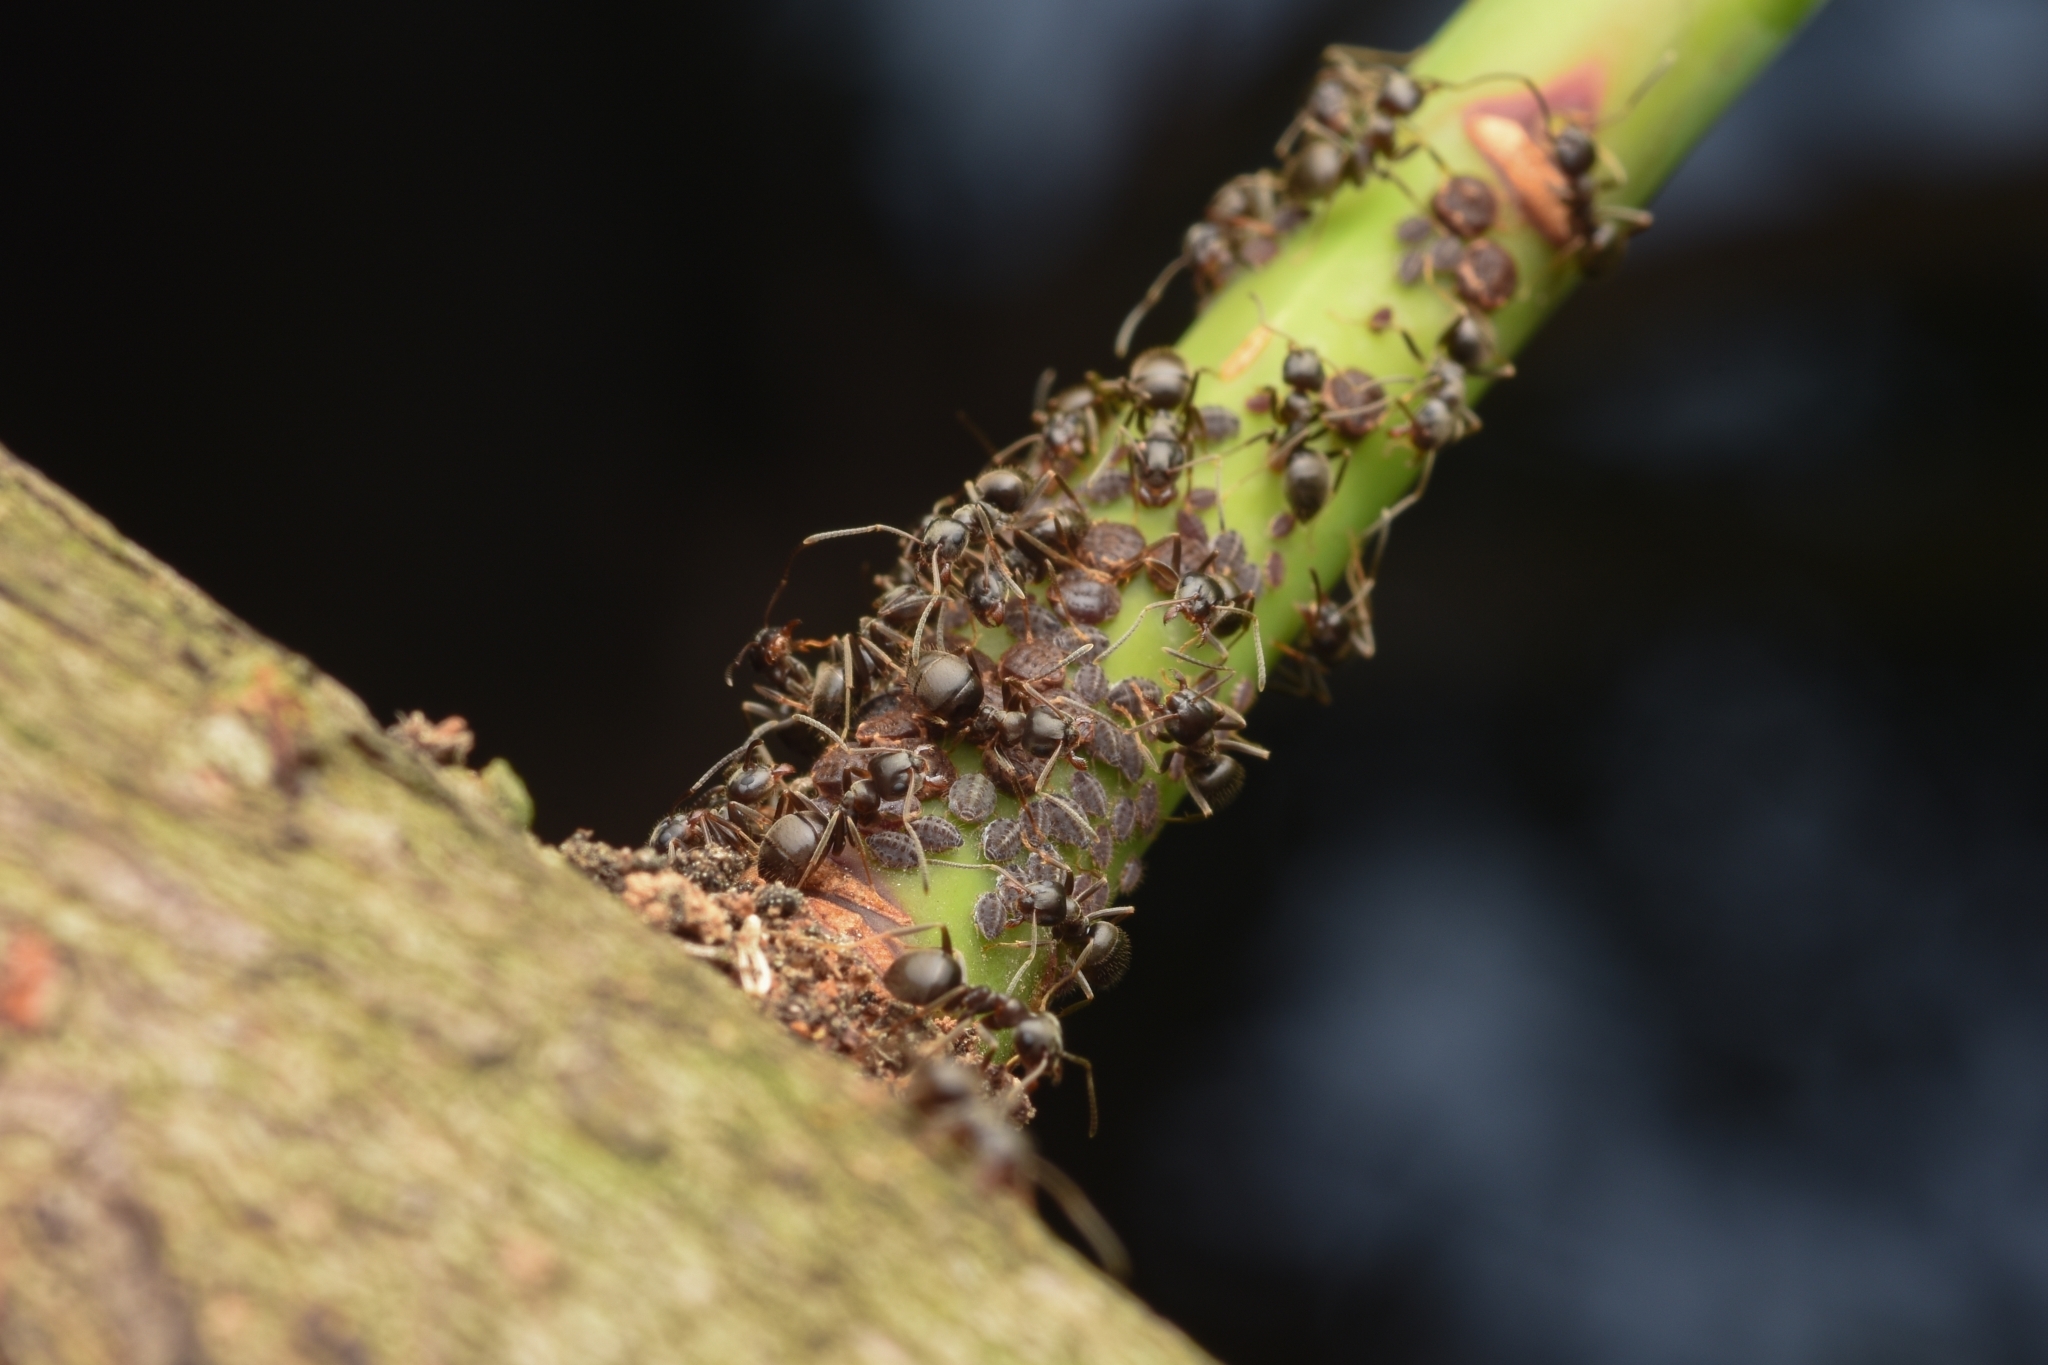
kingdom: Animalia
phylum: Arthropoda
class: Insecta
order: Hymenoptera
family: Formicidae
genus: Lasius
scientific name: Lasius japonicus
